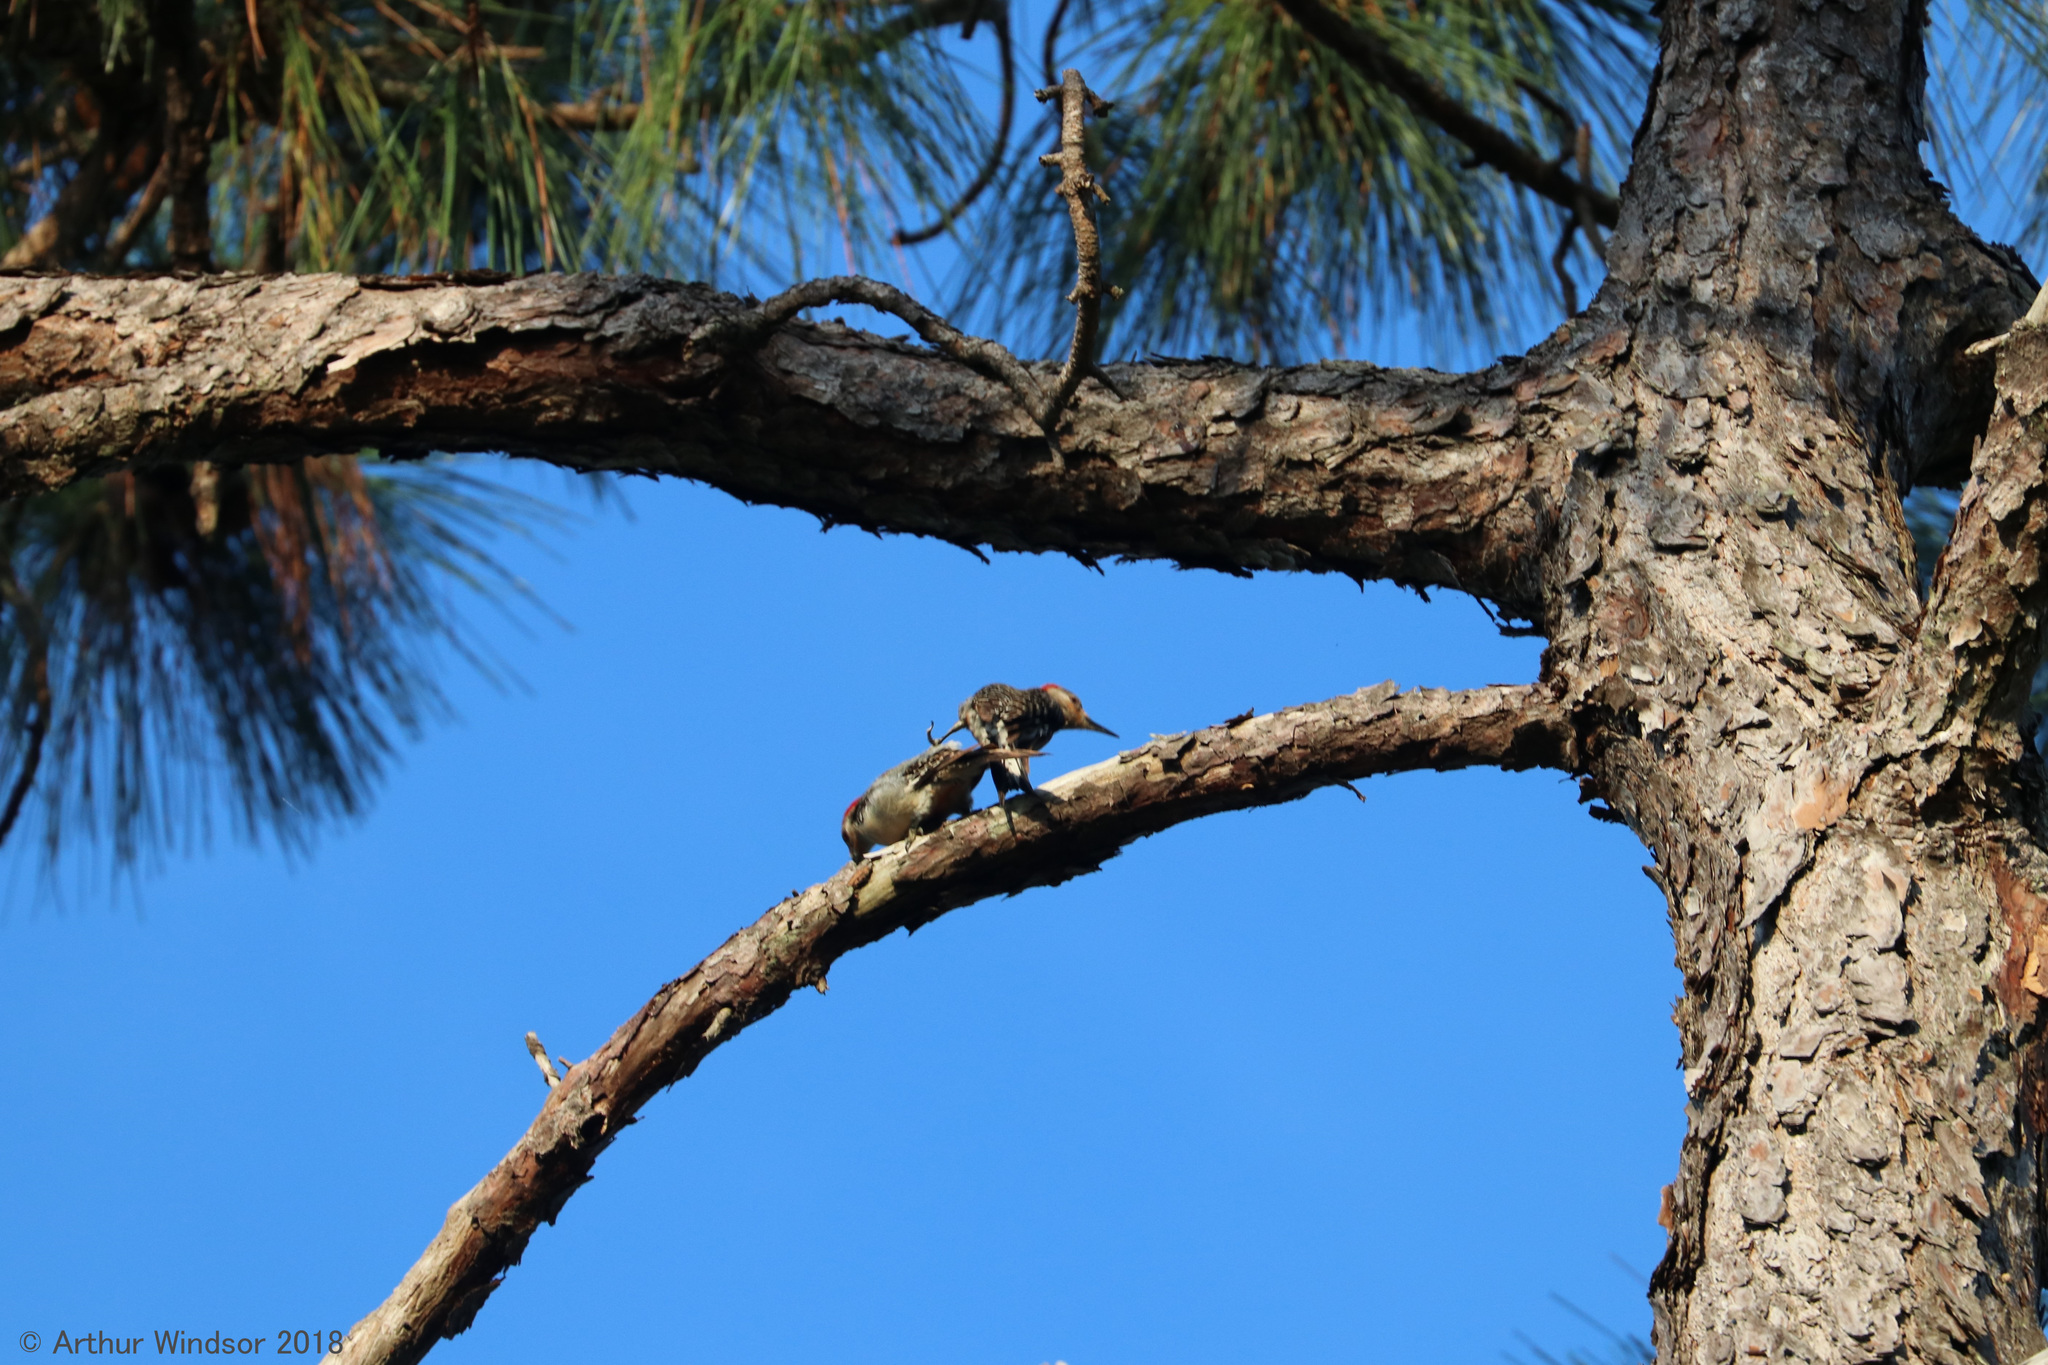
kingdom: Animalia
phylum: Chordata
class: Aves
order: Piciformes
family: Picidae
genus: Melanerpes
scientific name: Melanerpes carolinus
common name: Red-bellied woodpecker
